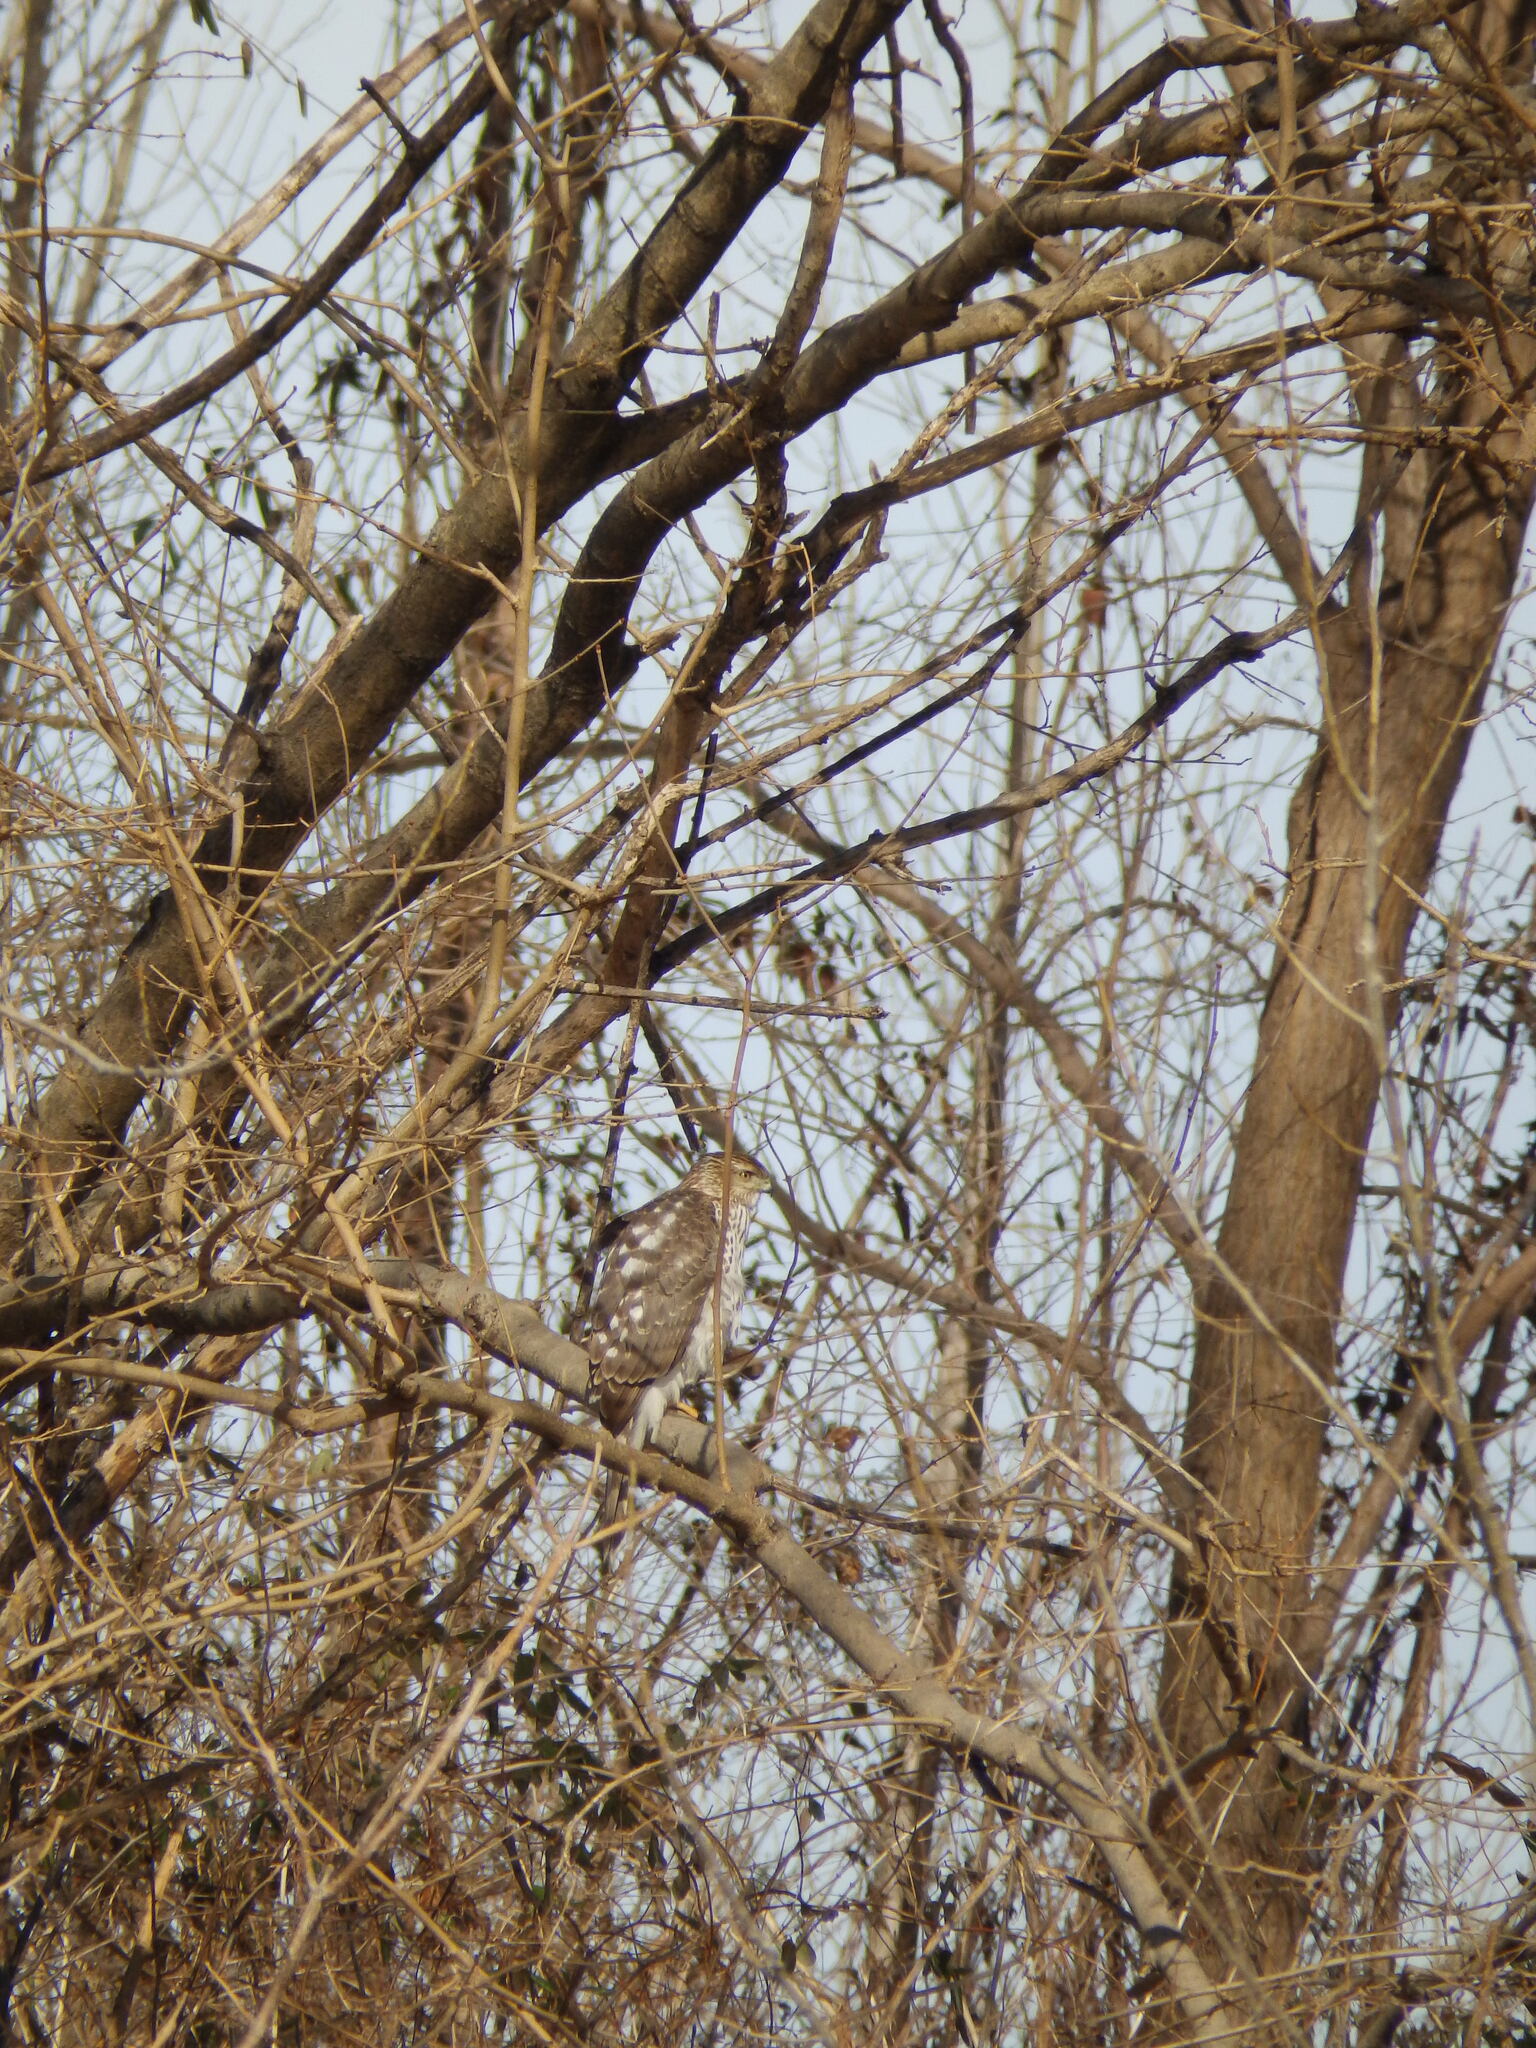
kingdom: Animalia
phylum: Chordata
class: Aves
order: Accipitriformes
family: Accipitridae
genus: Accipiter
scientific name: Accipiter cooperii
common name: Cooper's hawk
